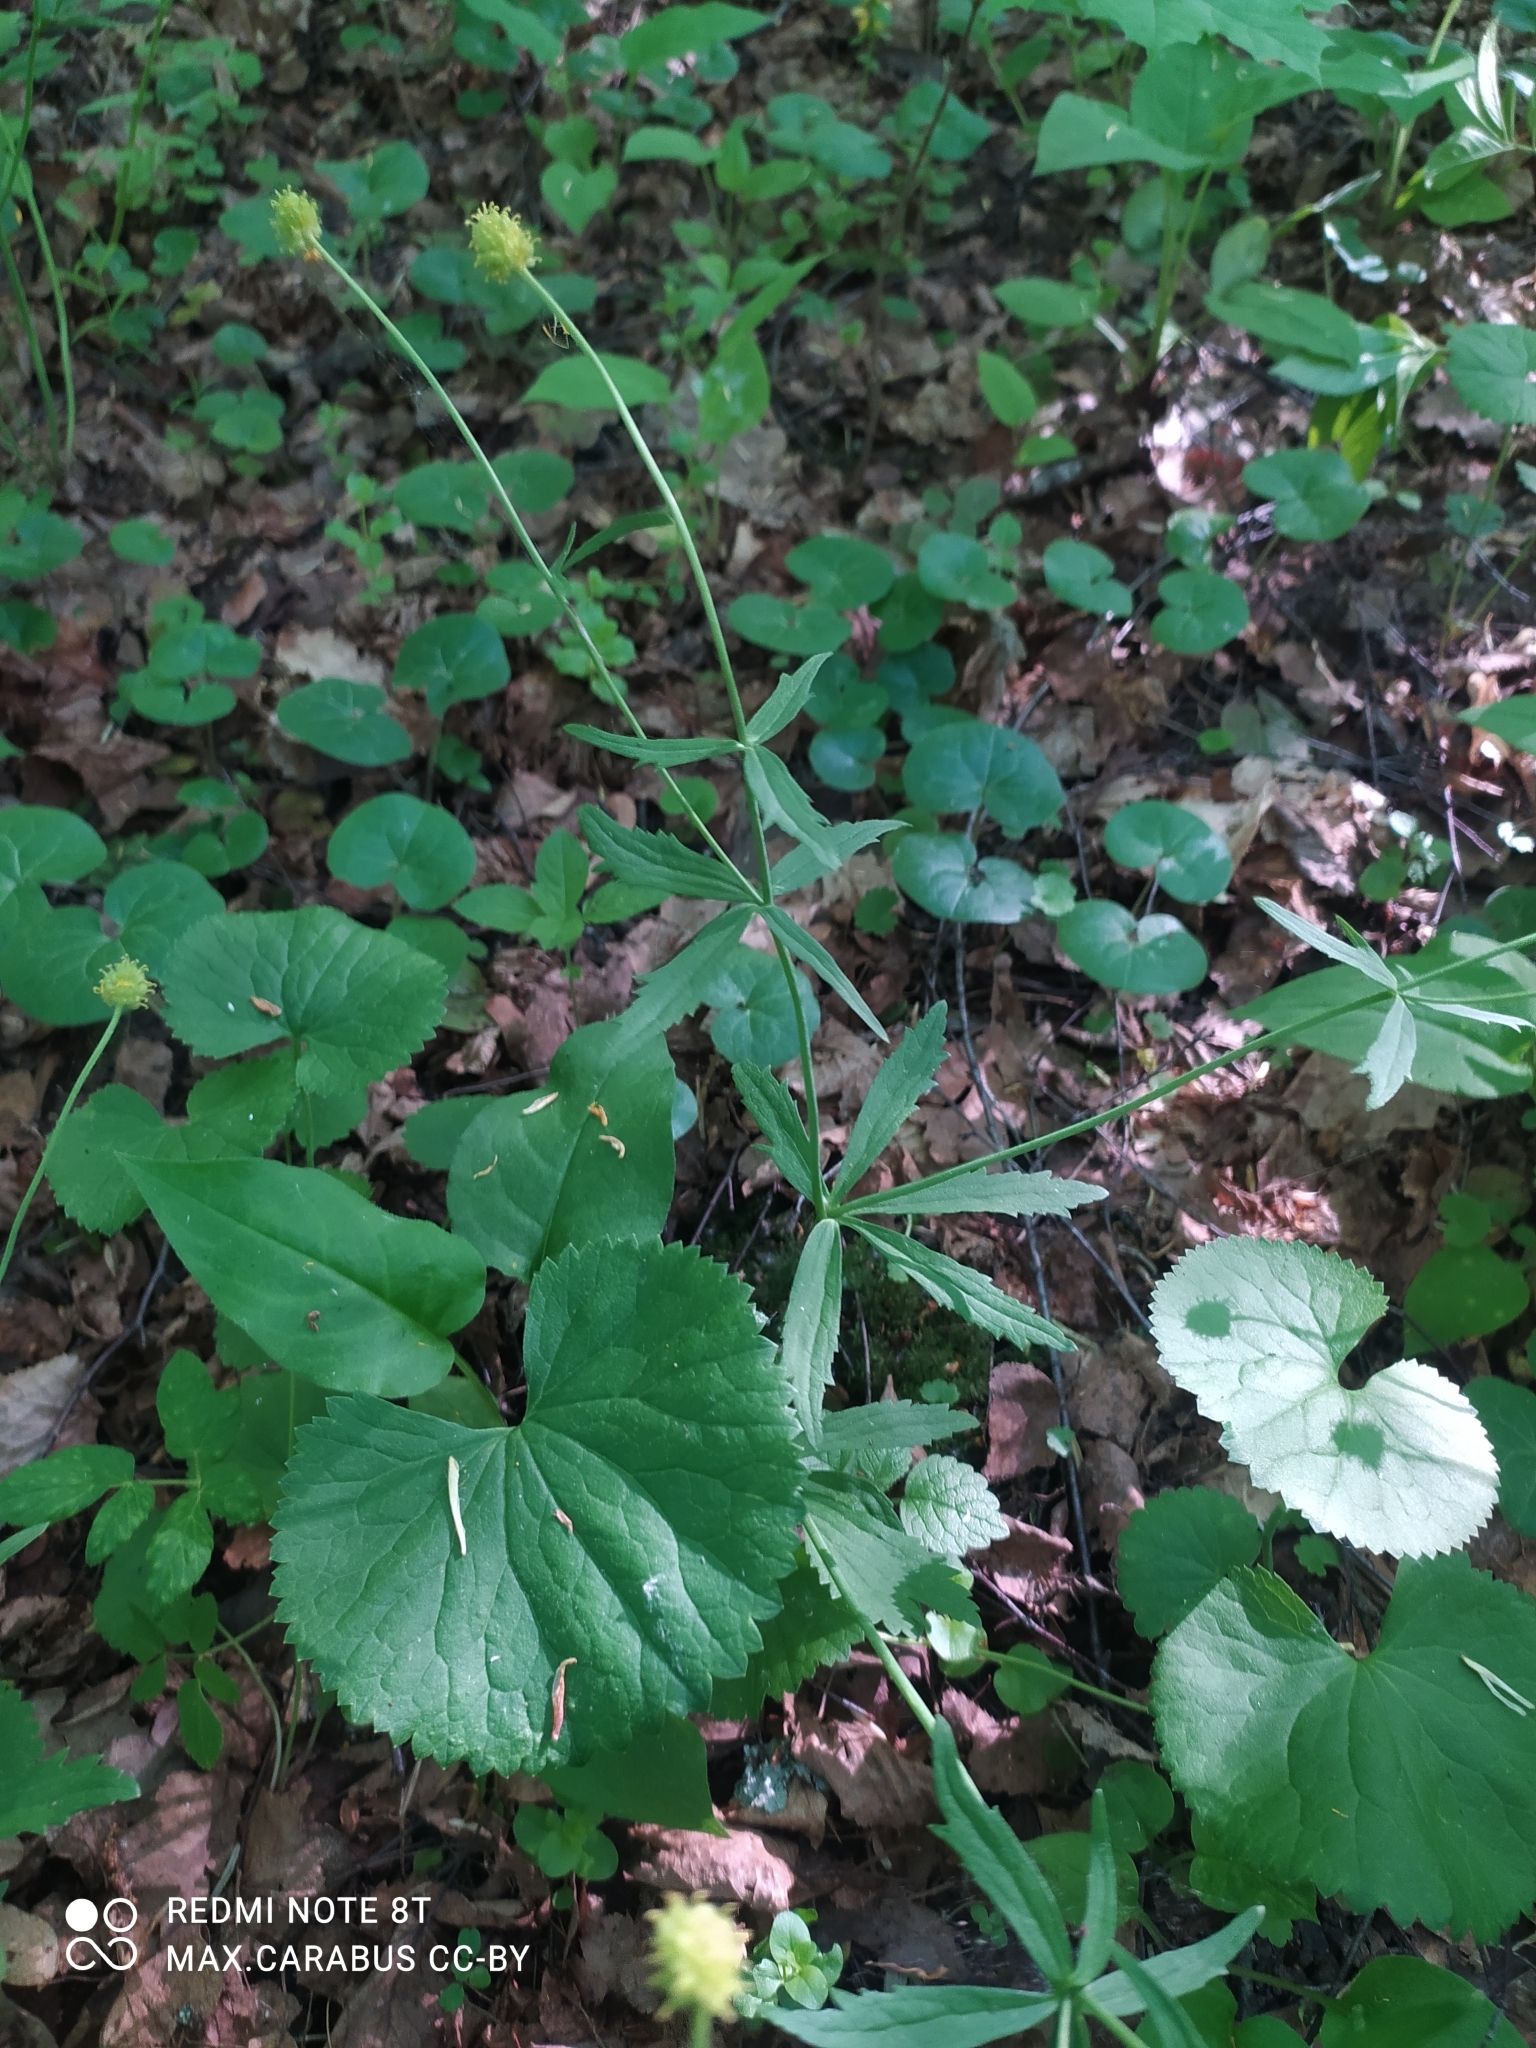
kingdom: Plantae
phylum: Tracheophyta
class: Magnoliopsida
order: Ranunculales
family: Ranunculaceae
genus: Ranunculus
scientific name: Ranunculus cassubicus
